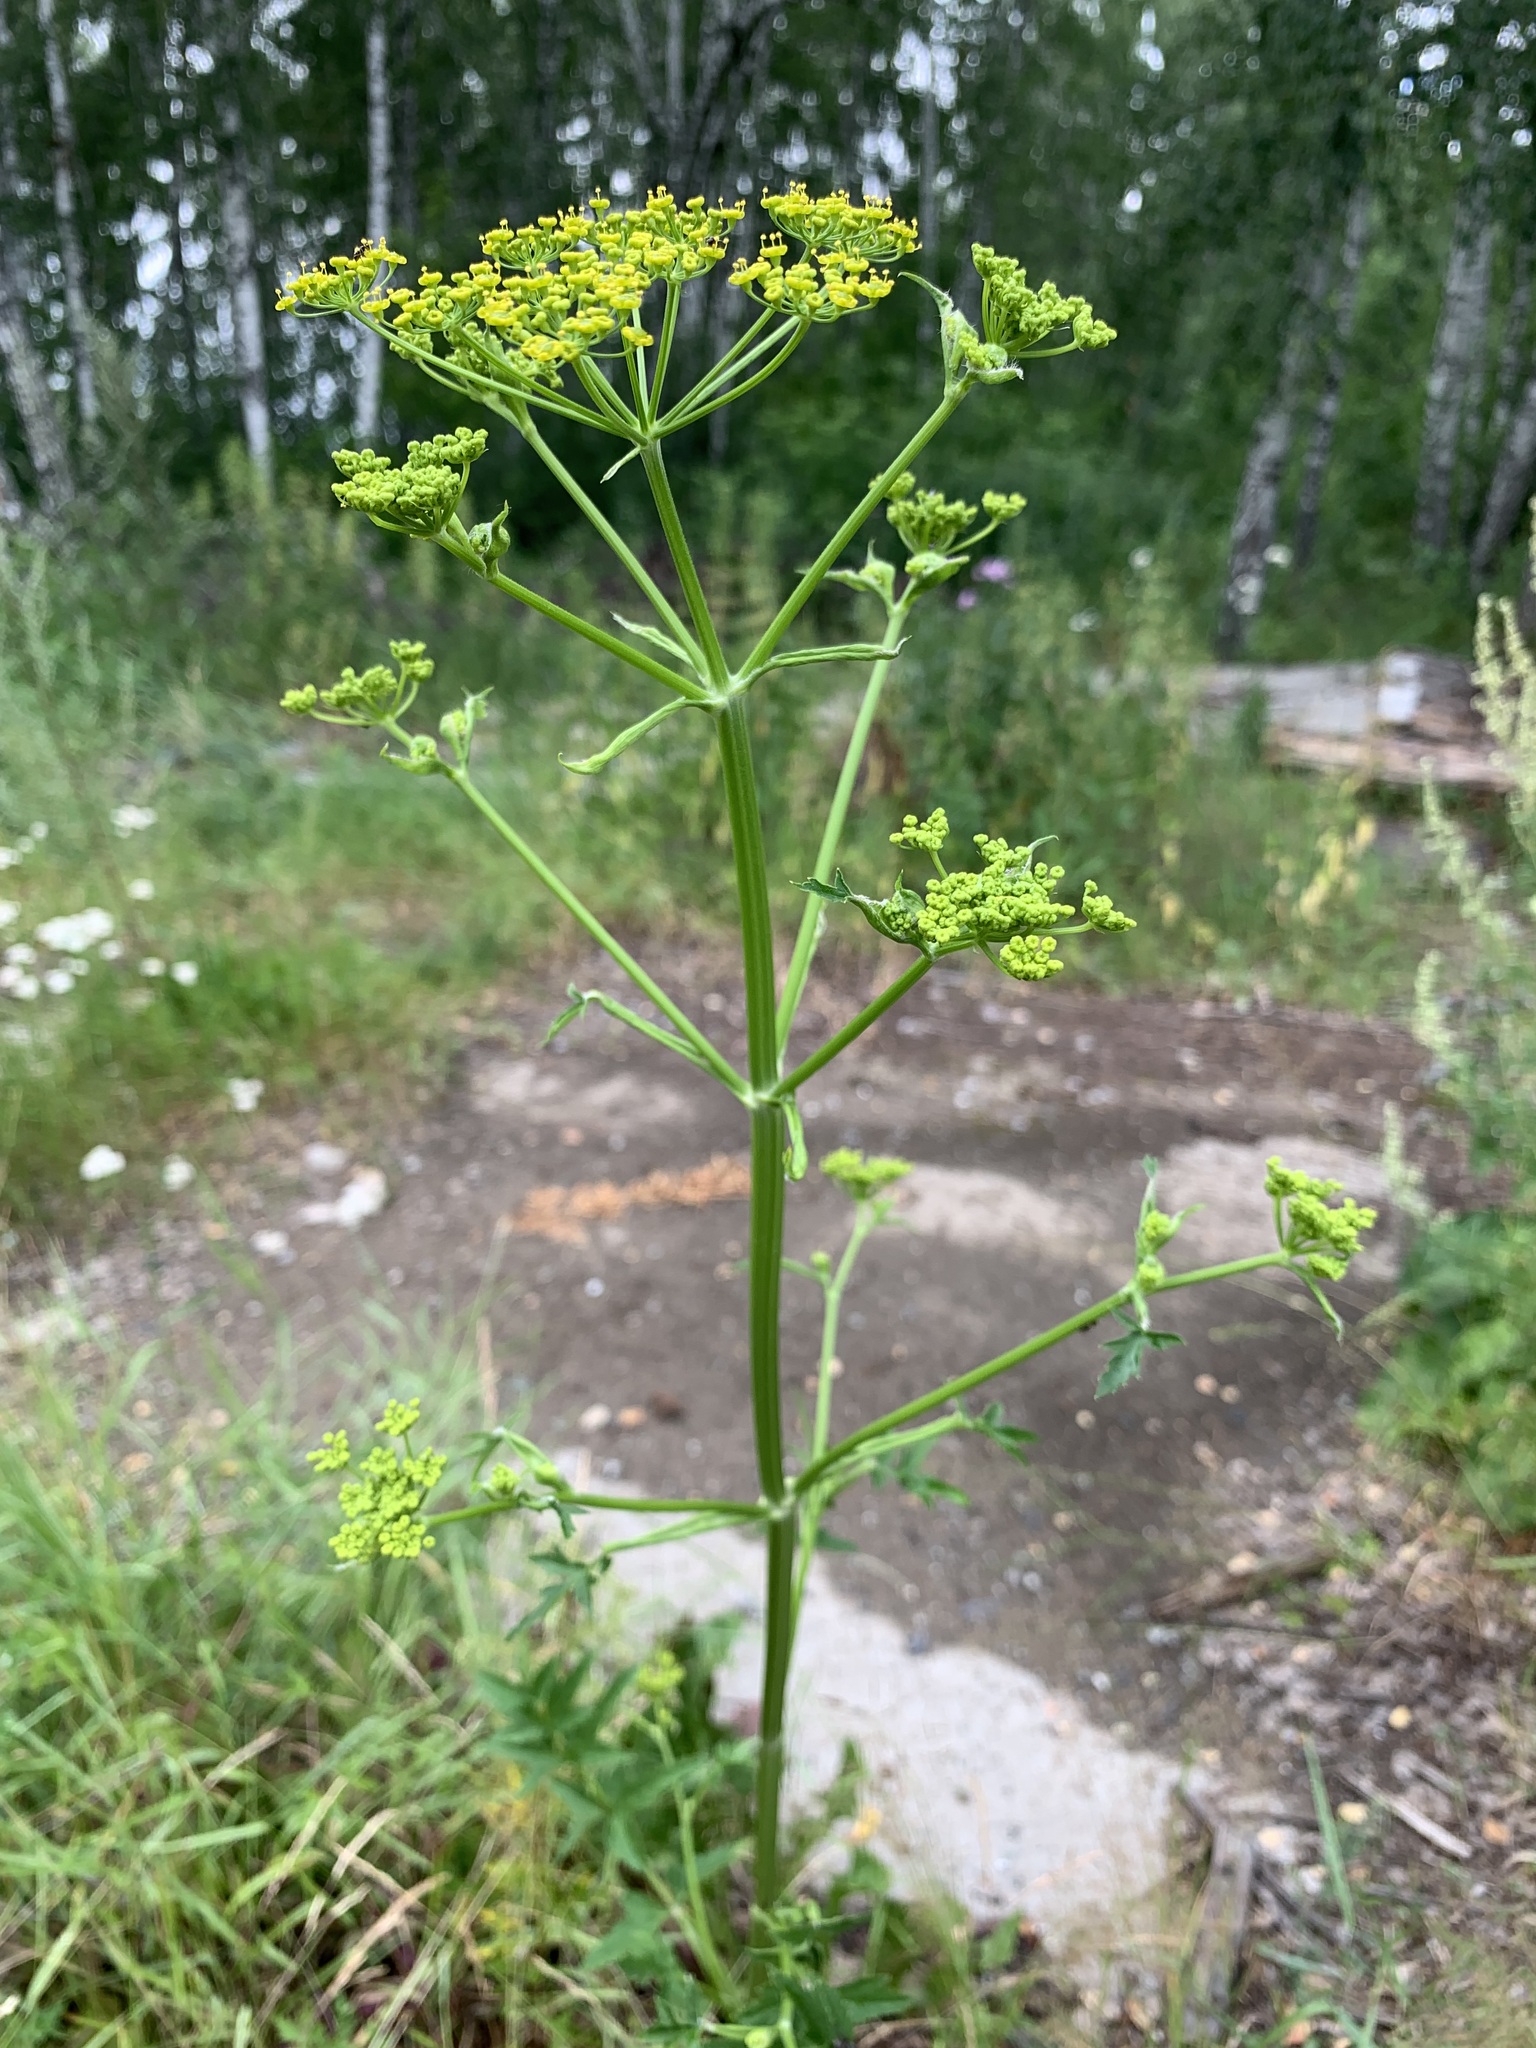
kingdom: Plantae
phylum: Tracheophyta
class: Magnoliopsida
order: Apiales
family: Apiaceae
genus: Pastinaca
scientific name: Pastinaca sativa
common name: Wild parsnip
